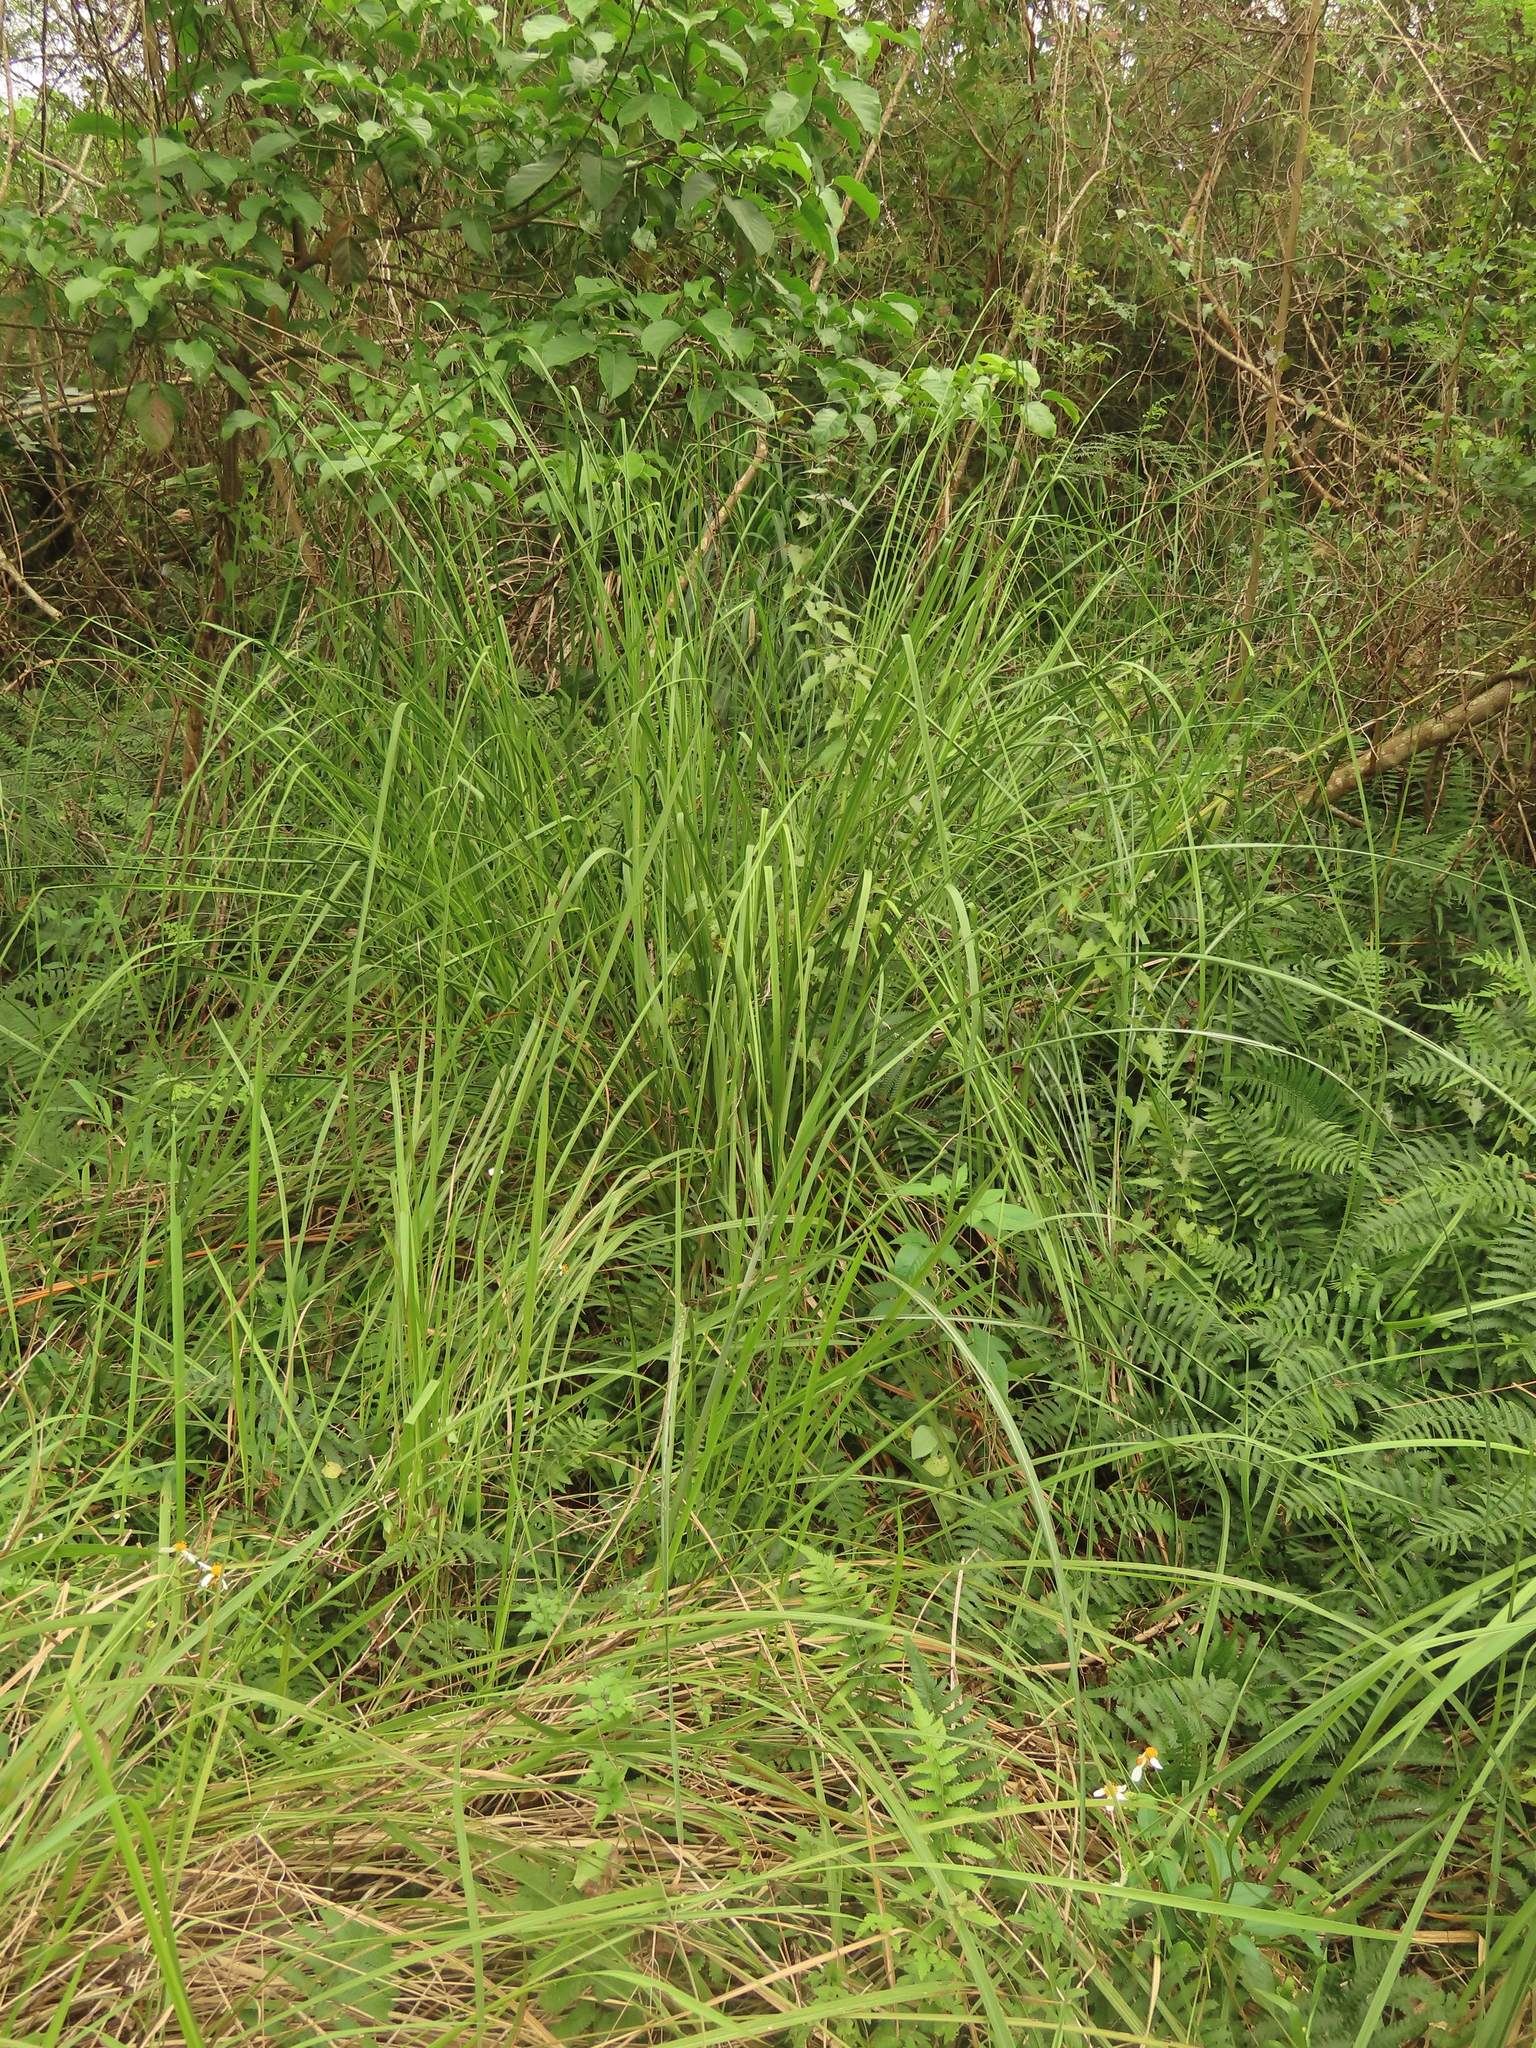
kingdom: Plantae
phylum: Tracheophyta
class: Liliopsida
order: Poales
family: Cyperaceae
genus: Cladium
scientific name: Cladium mariscus
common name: Great fen-sedge
